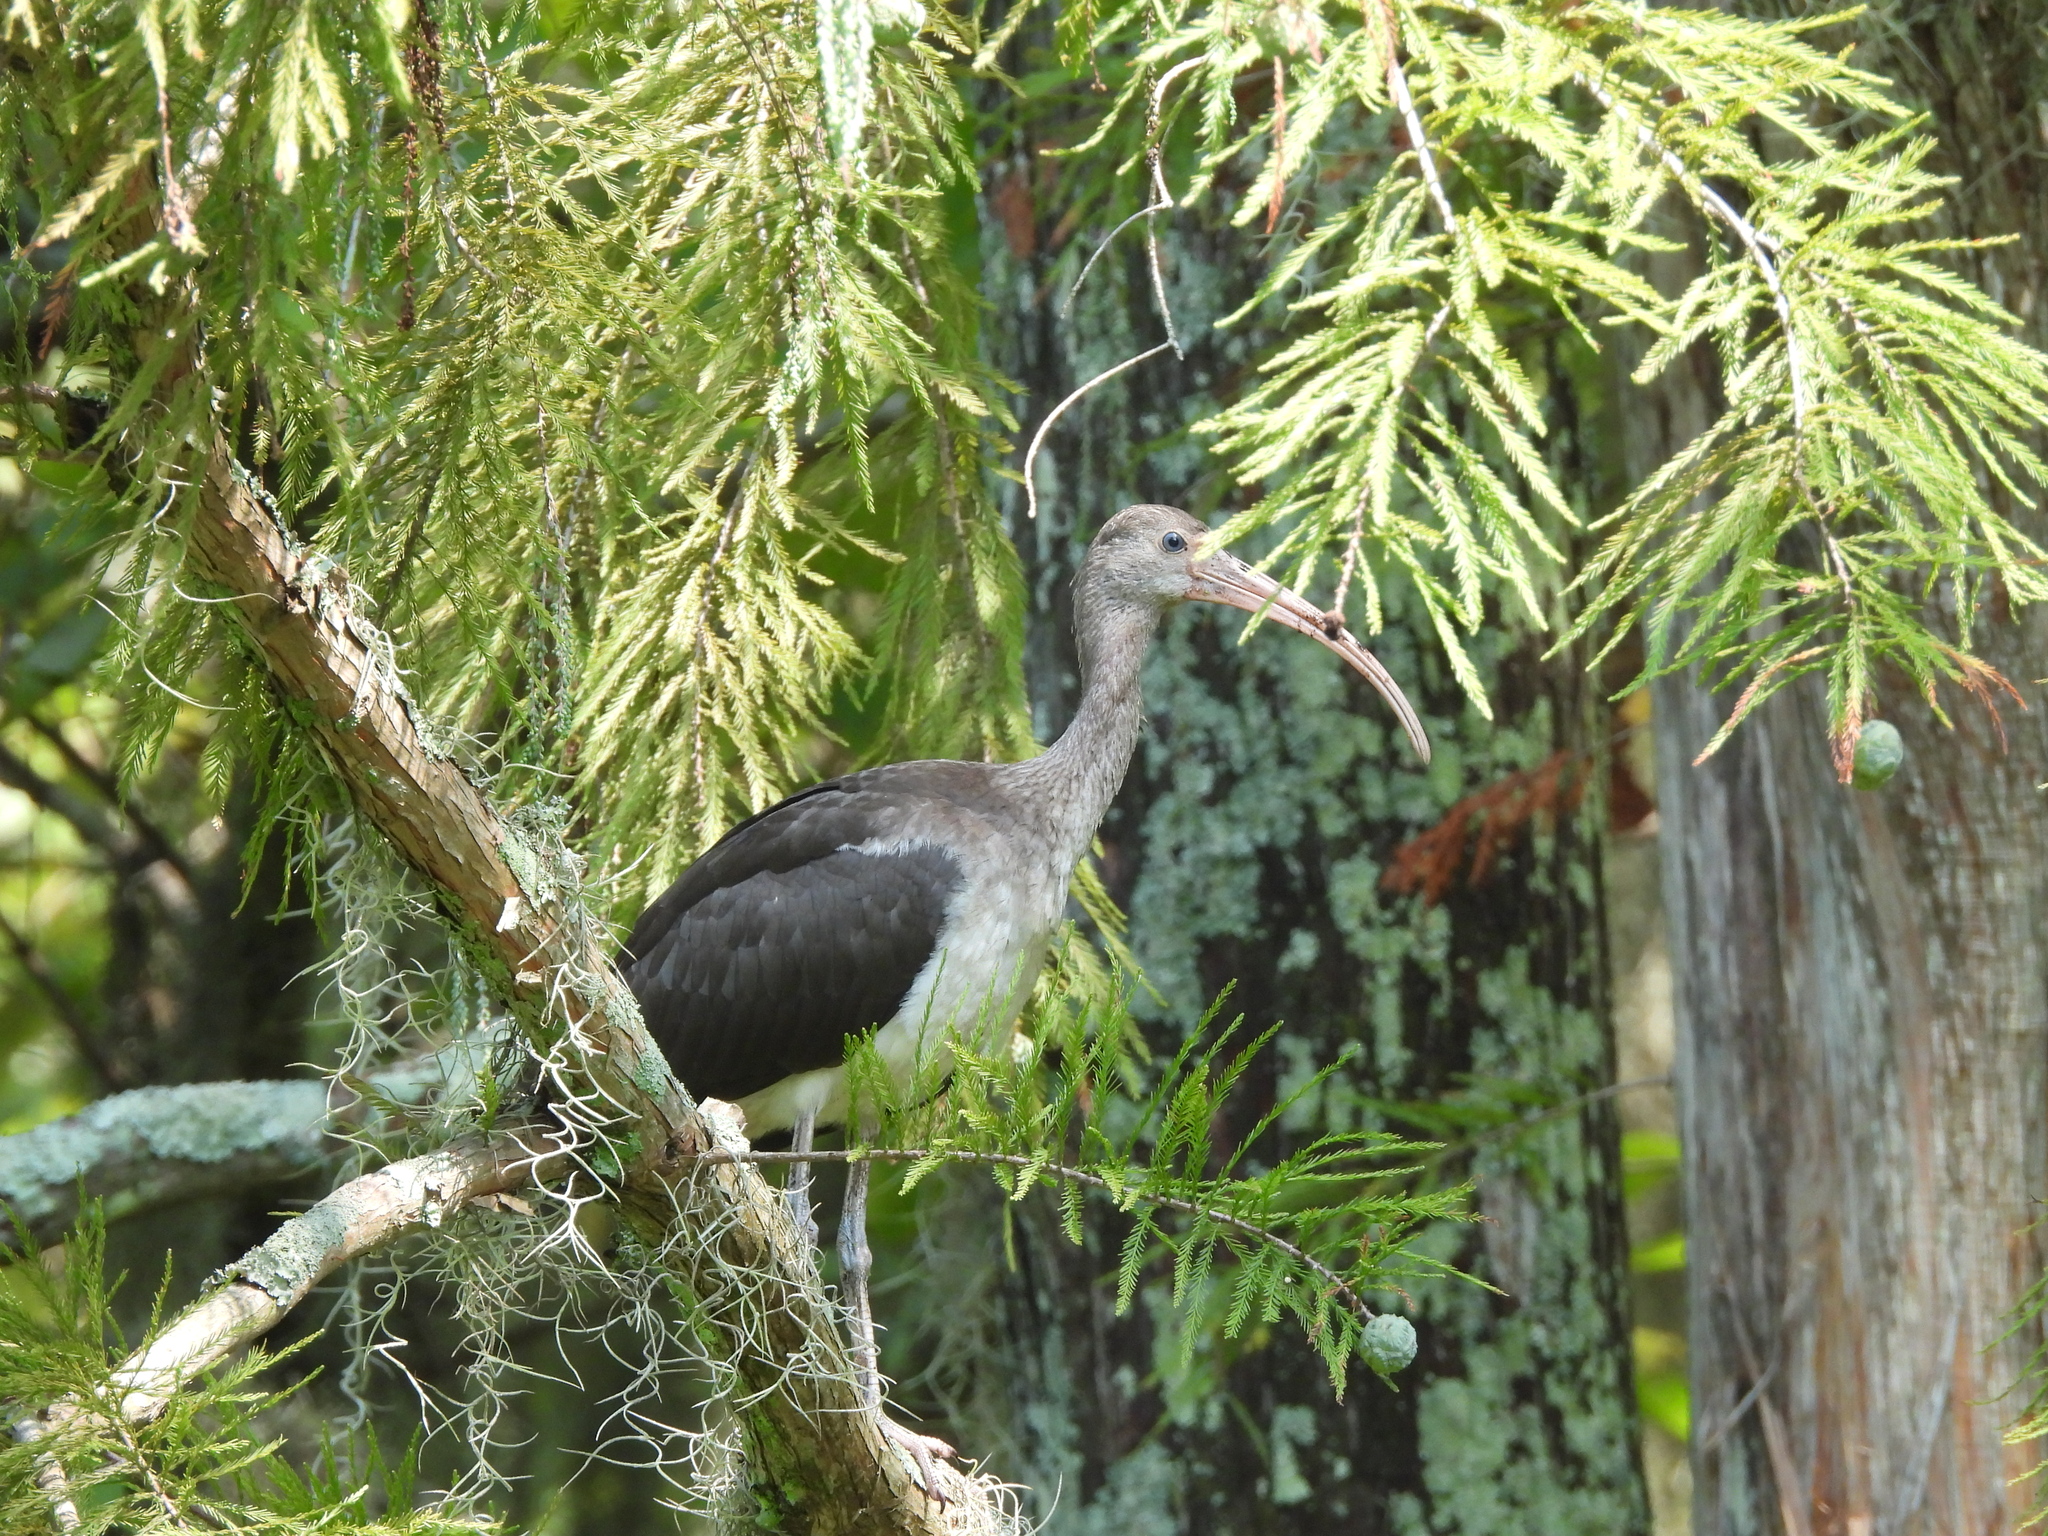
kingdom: Animalia
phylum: Chordata
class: Aves
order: Pelecaniformes
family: Threskiornithidae
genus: Eudocimus
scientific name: Eudocimus albus
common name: White ibis
